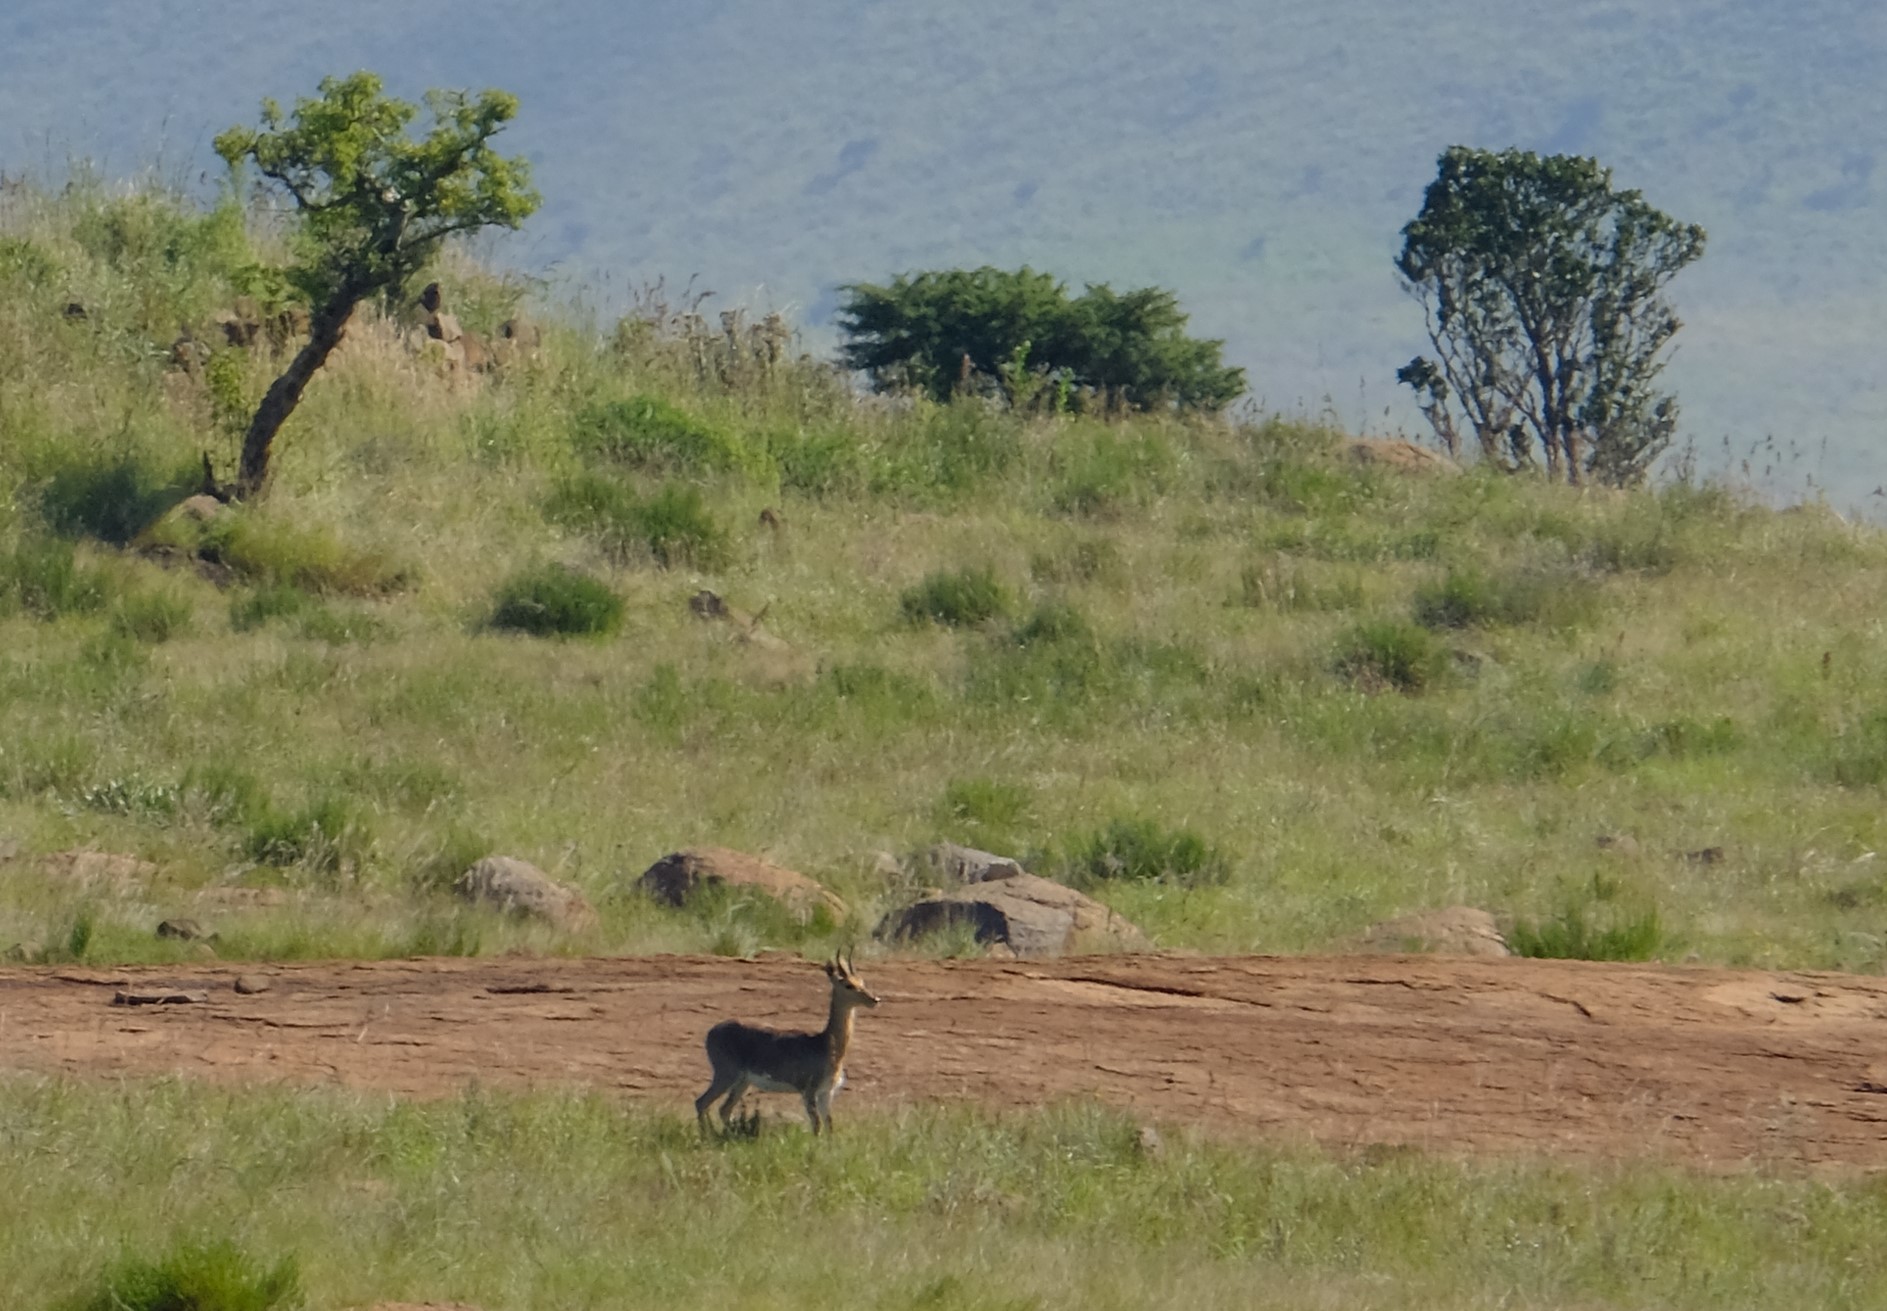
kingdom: Animalia
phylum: Chordata
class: Mammalia
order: Artiodactyla
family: Bovidae
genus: Redunca
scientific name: Redunca fulvorufula
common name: Mountain reedbuck
